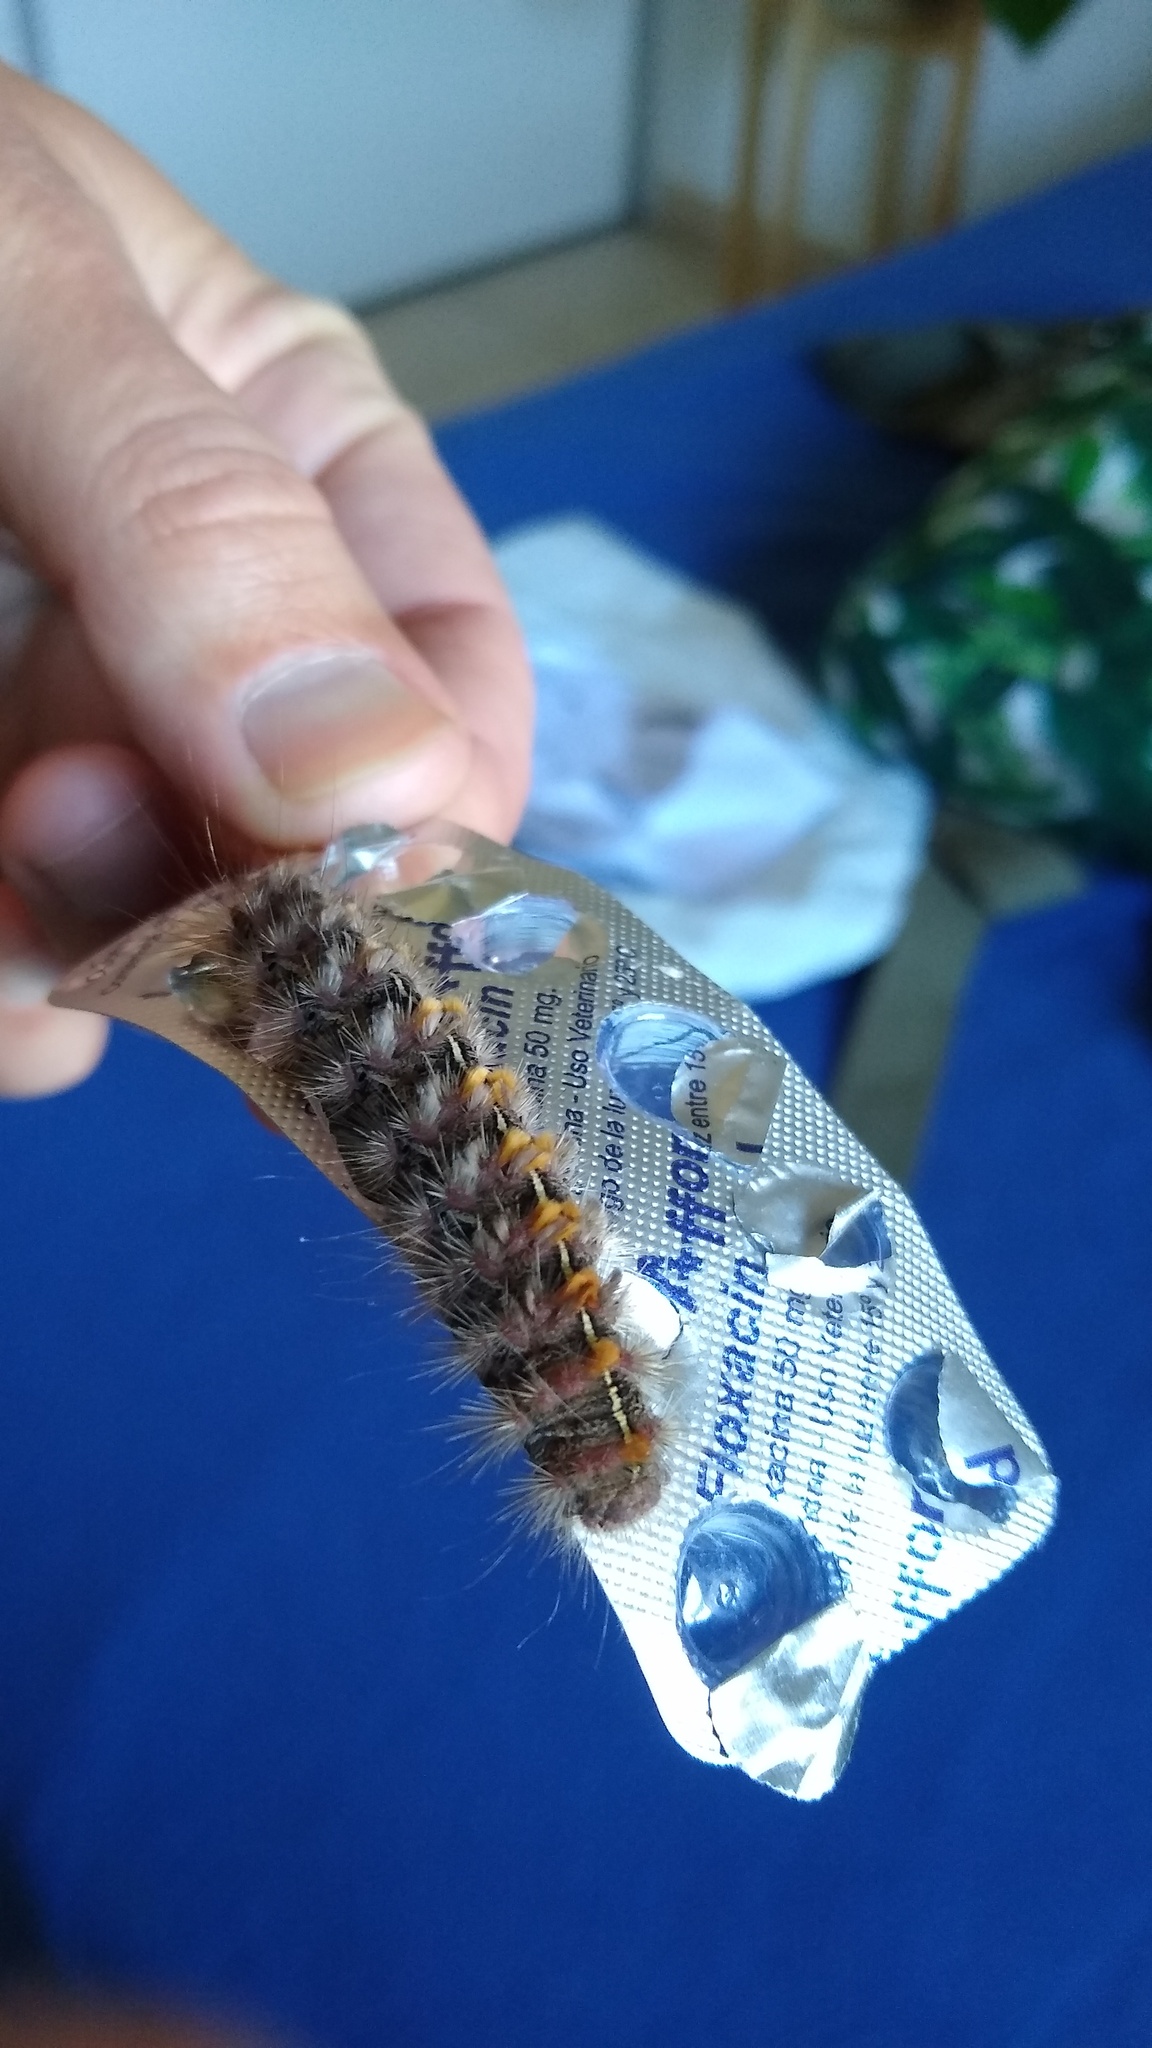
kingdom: Animalia
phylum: Arthropoda
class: Insecta
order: Lepidoptera
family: Erebidae
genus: Paracles
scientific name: Paracles fusca
